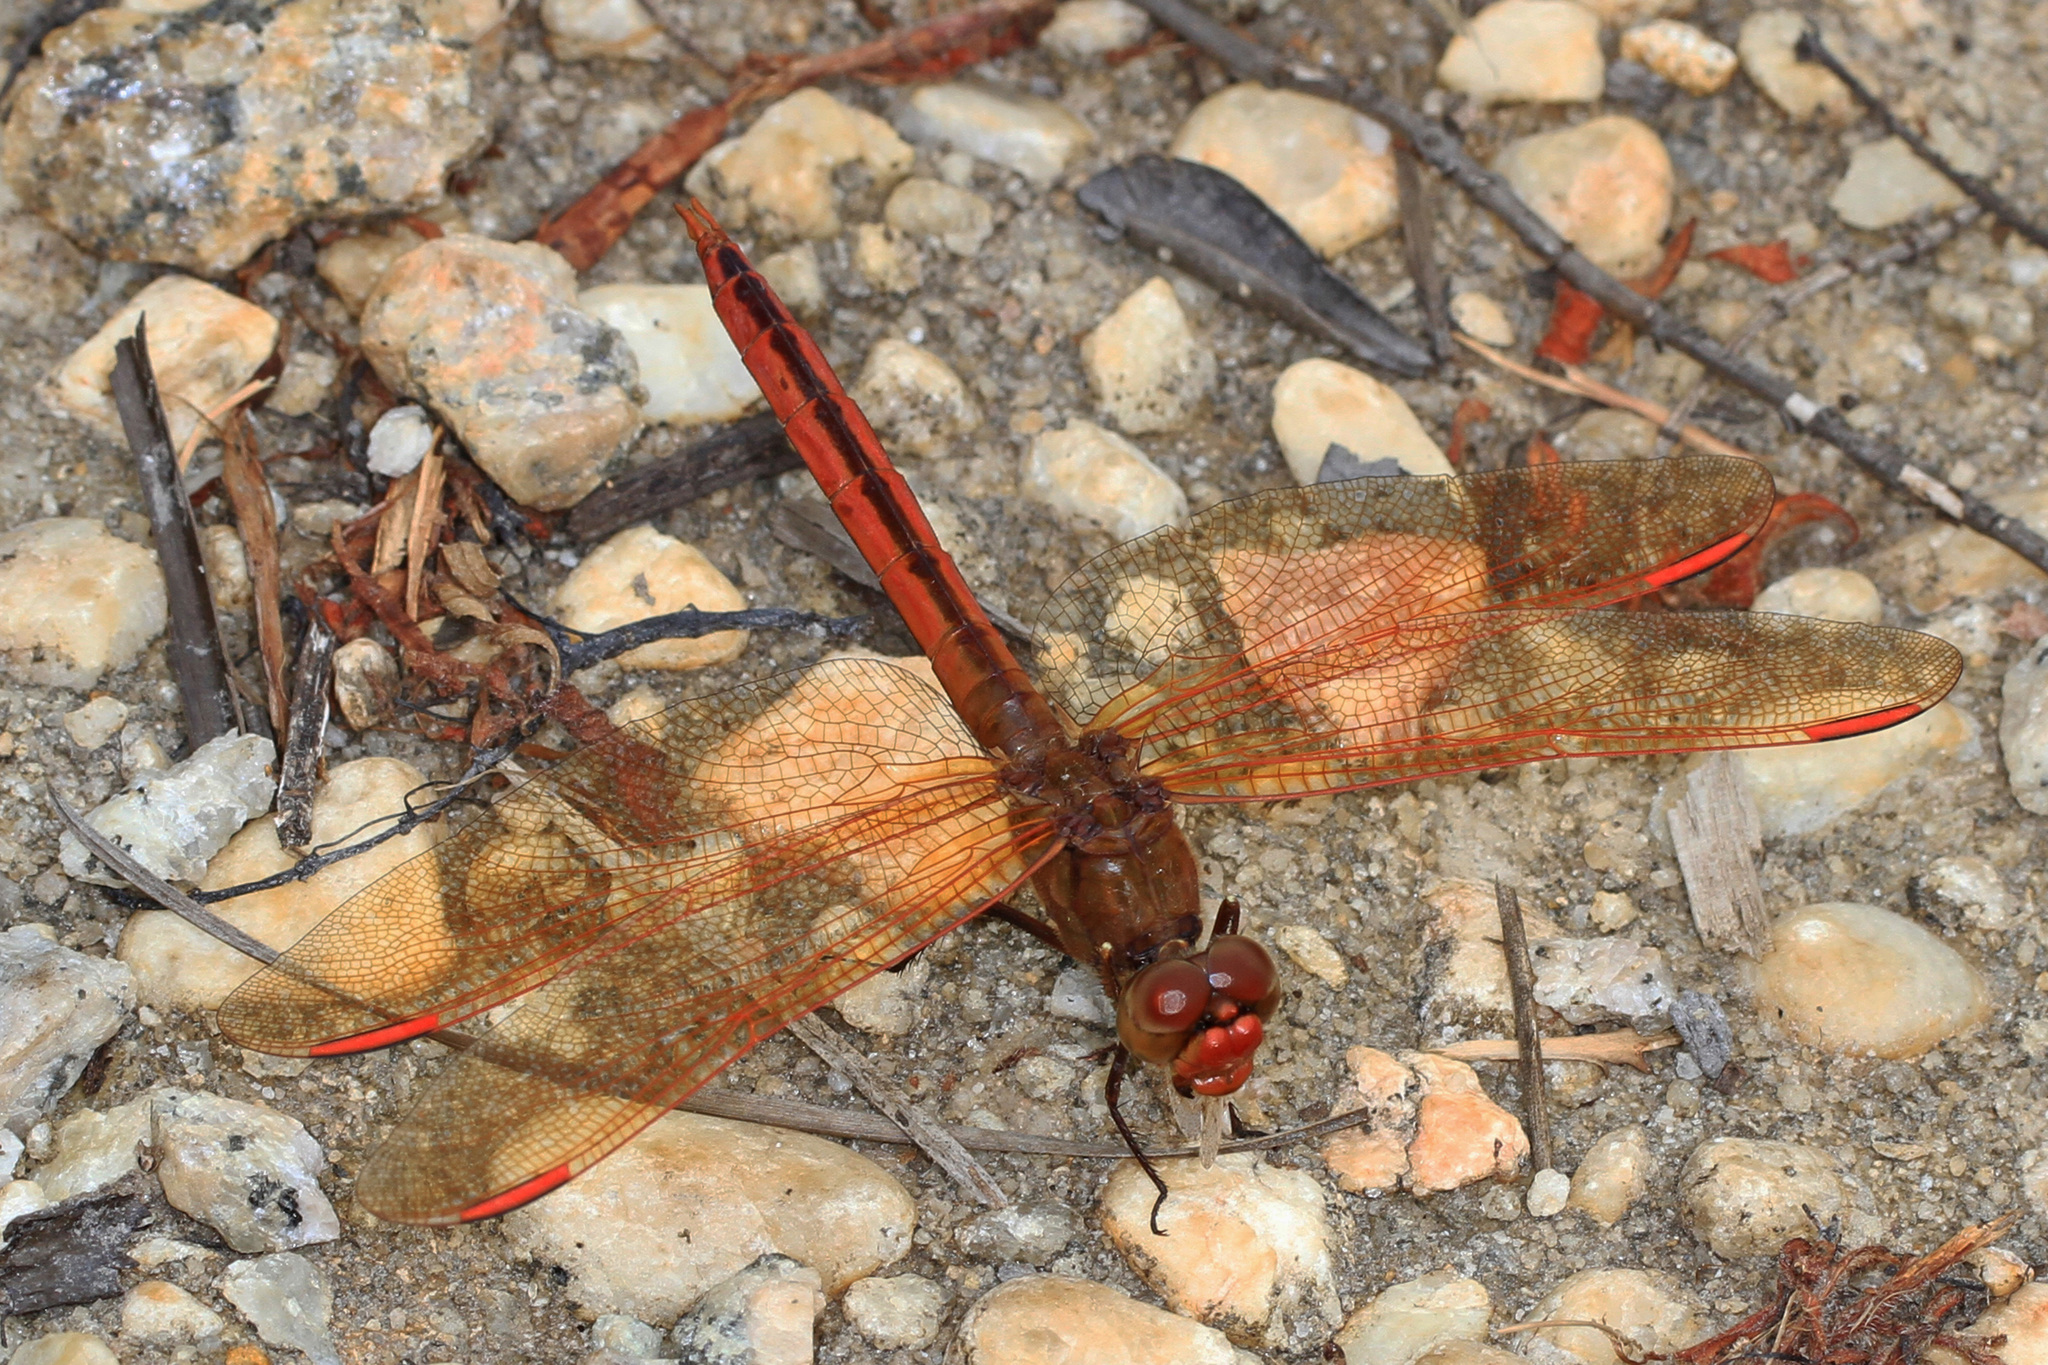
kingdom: Animalia
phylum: Arthropoda
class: Insecta
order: Odonata
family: Libellulidae
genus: Libellula
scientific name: Libellula auripennis
